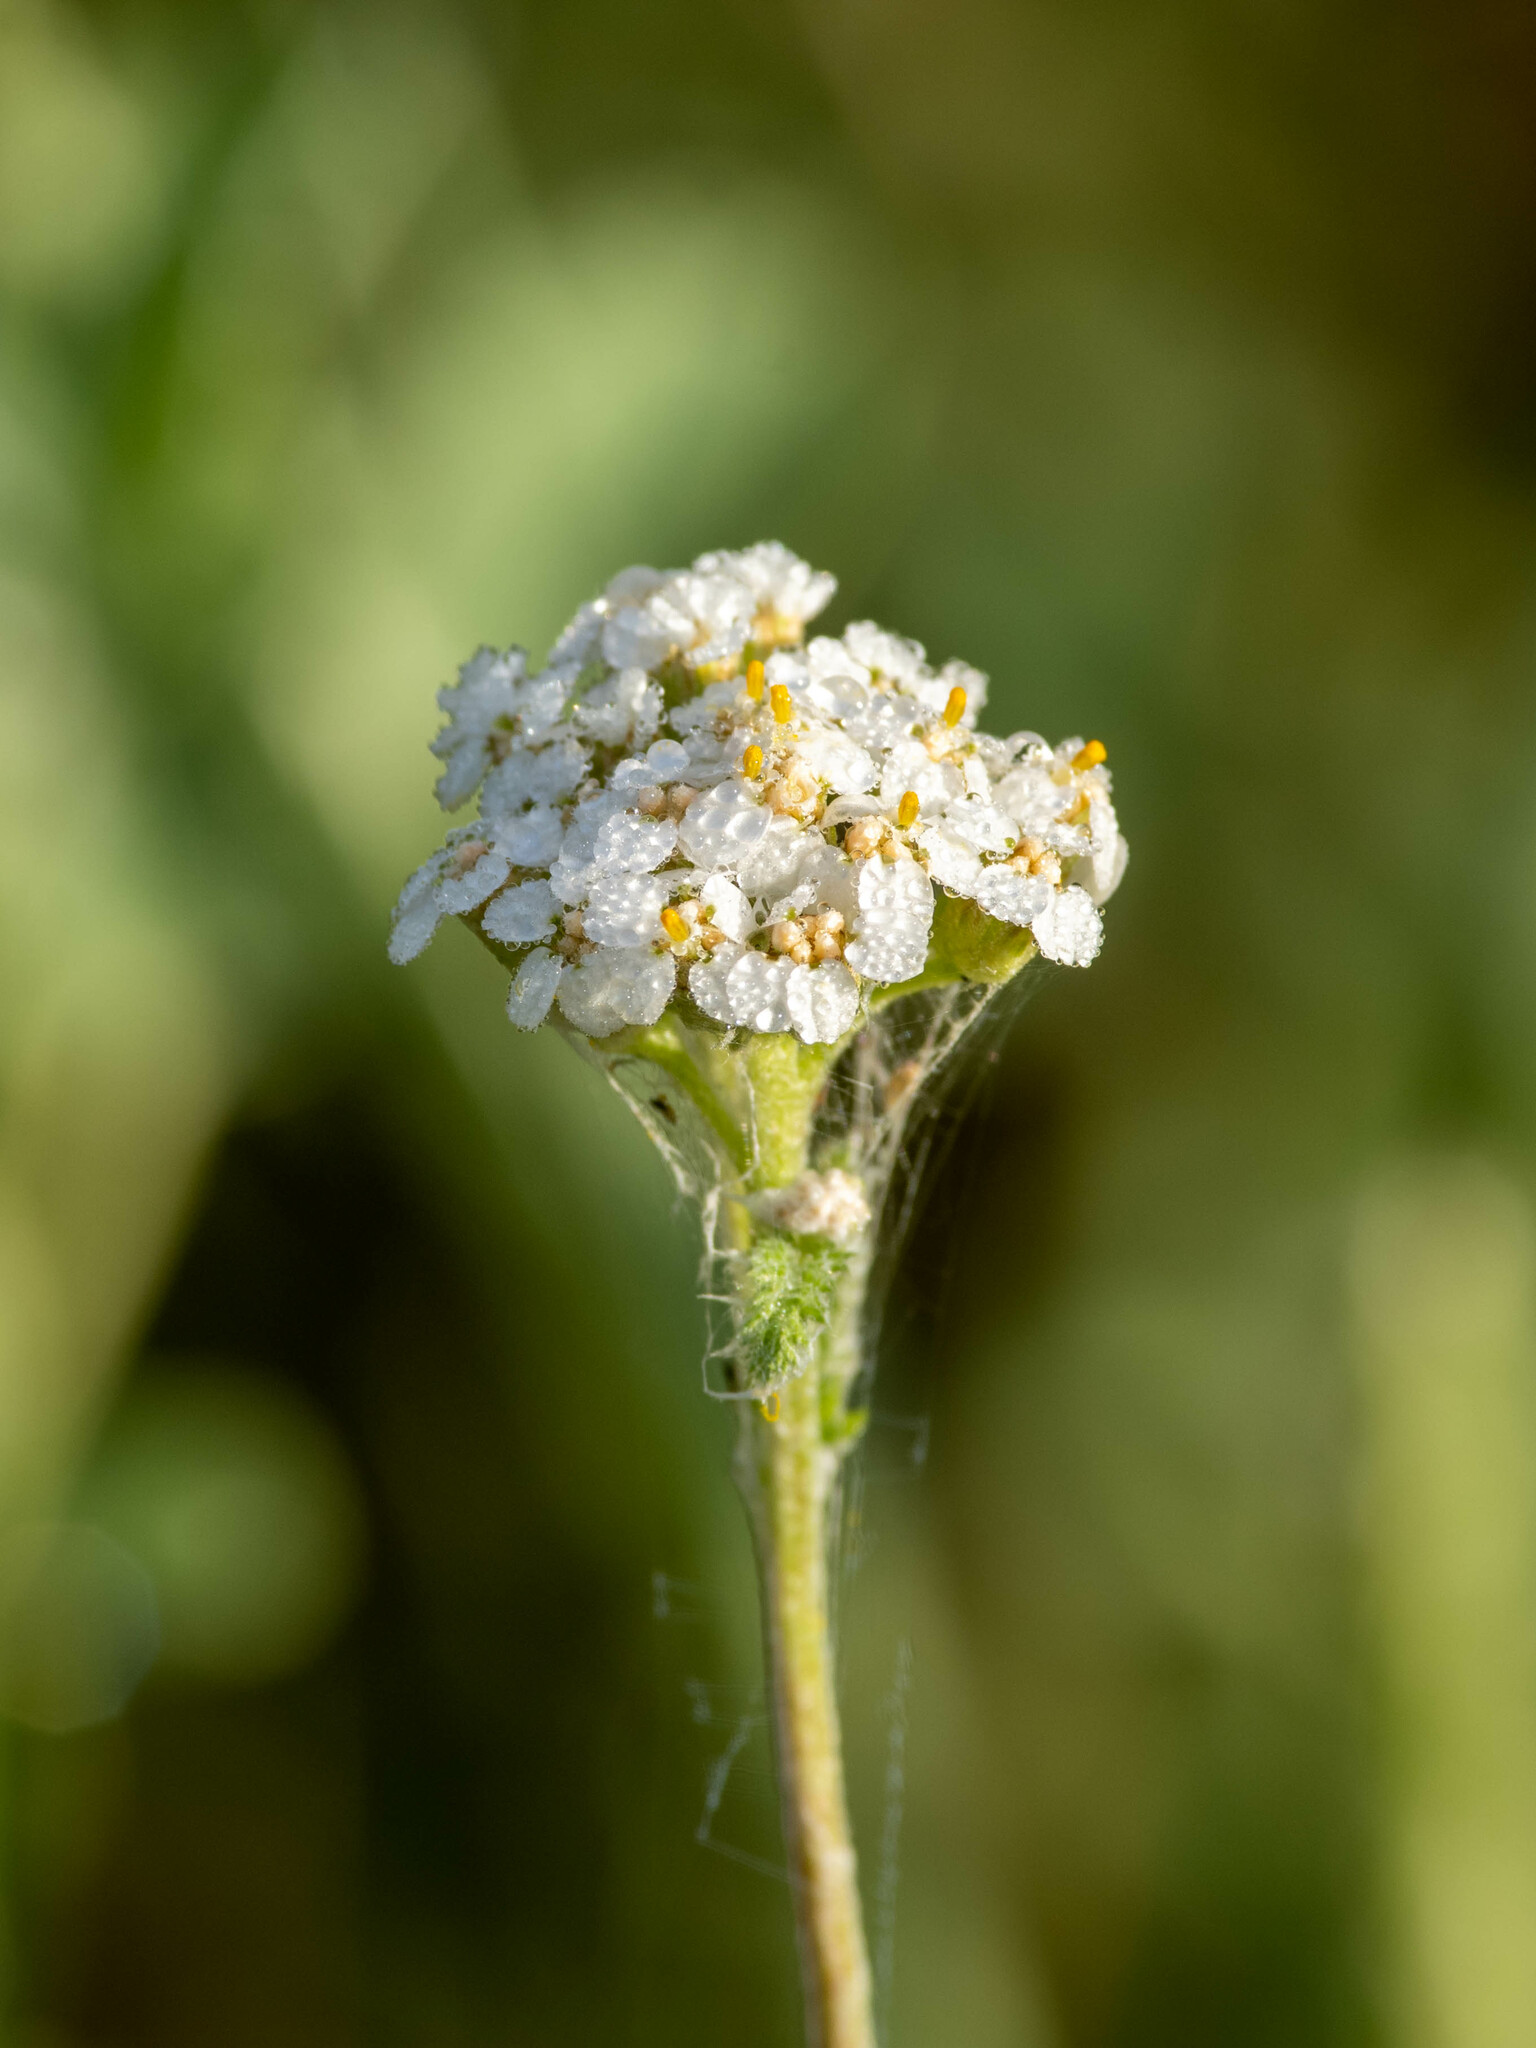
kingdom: Plantae
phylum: Tracheophyta
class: Magnoliopsida
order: Asterales
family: Asteraceae
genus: Achillea
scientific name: Achillea millefolium
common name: Yarrow
